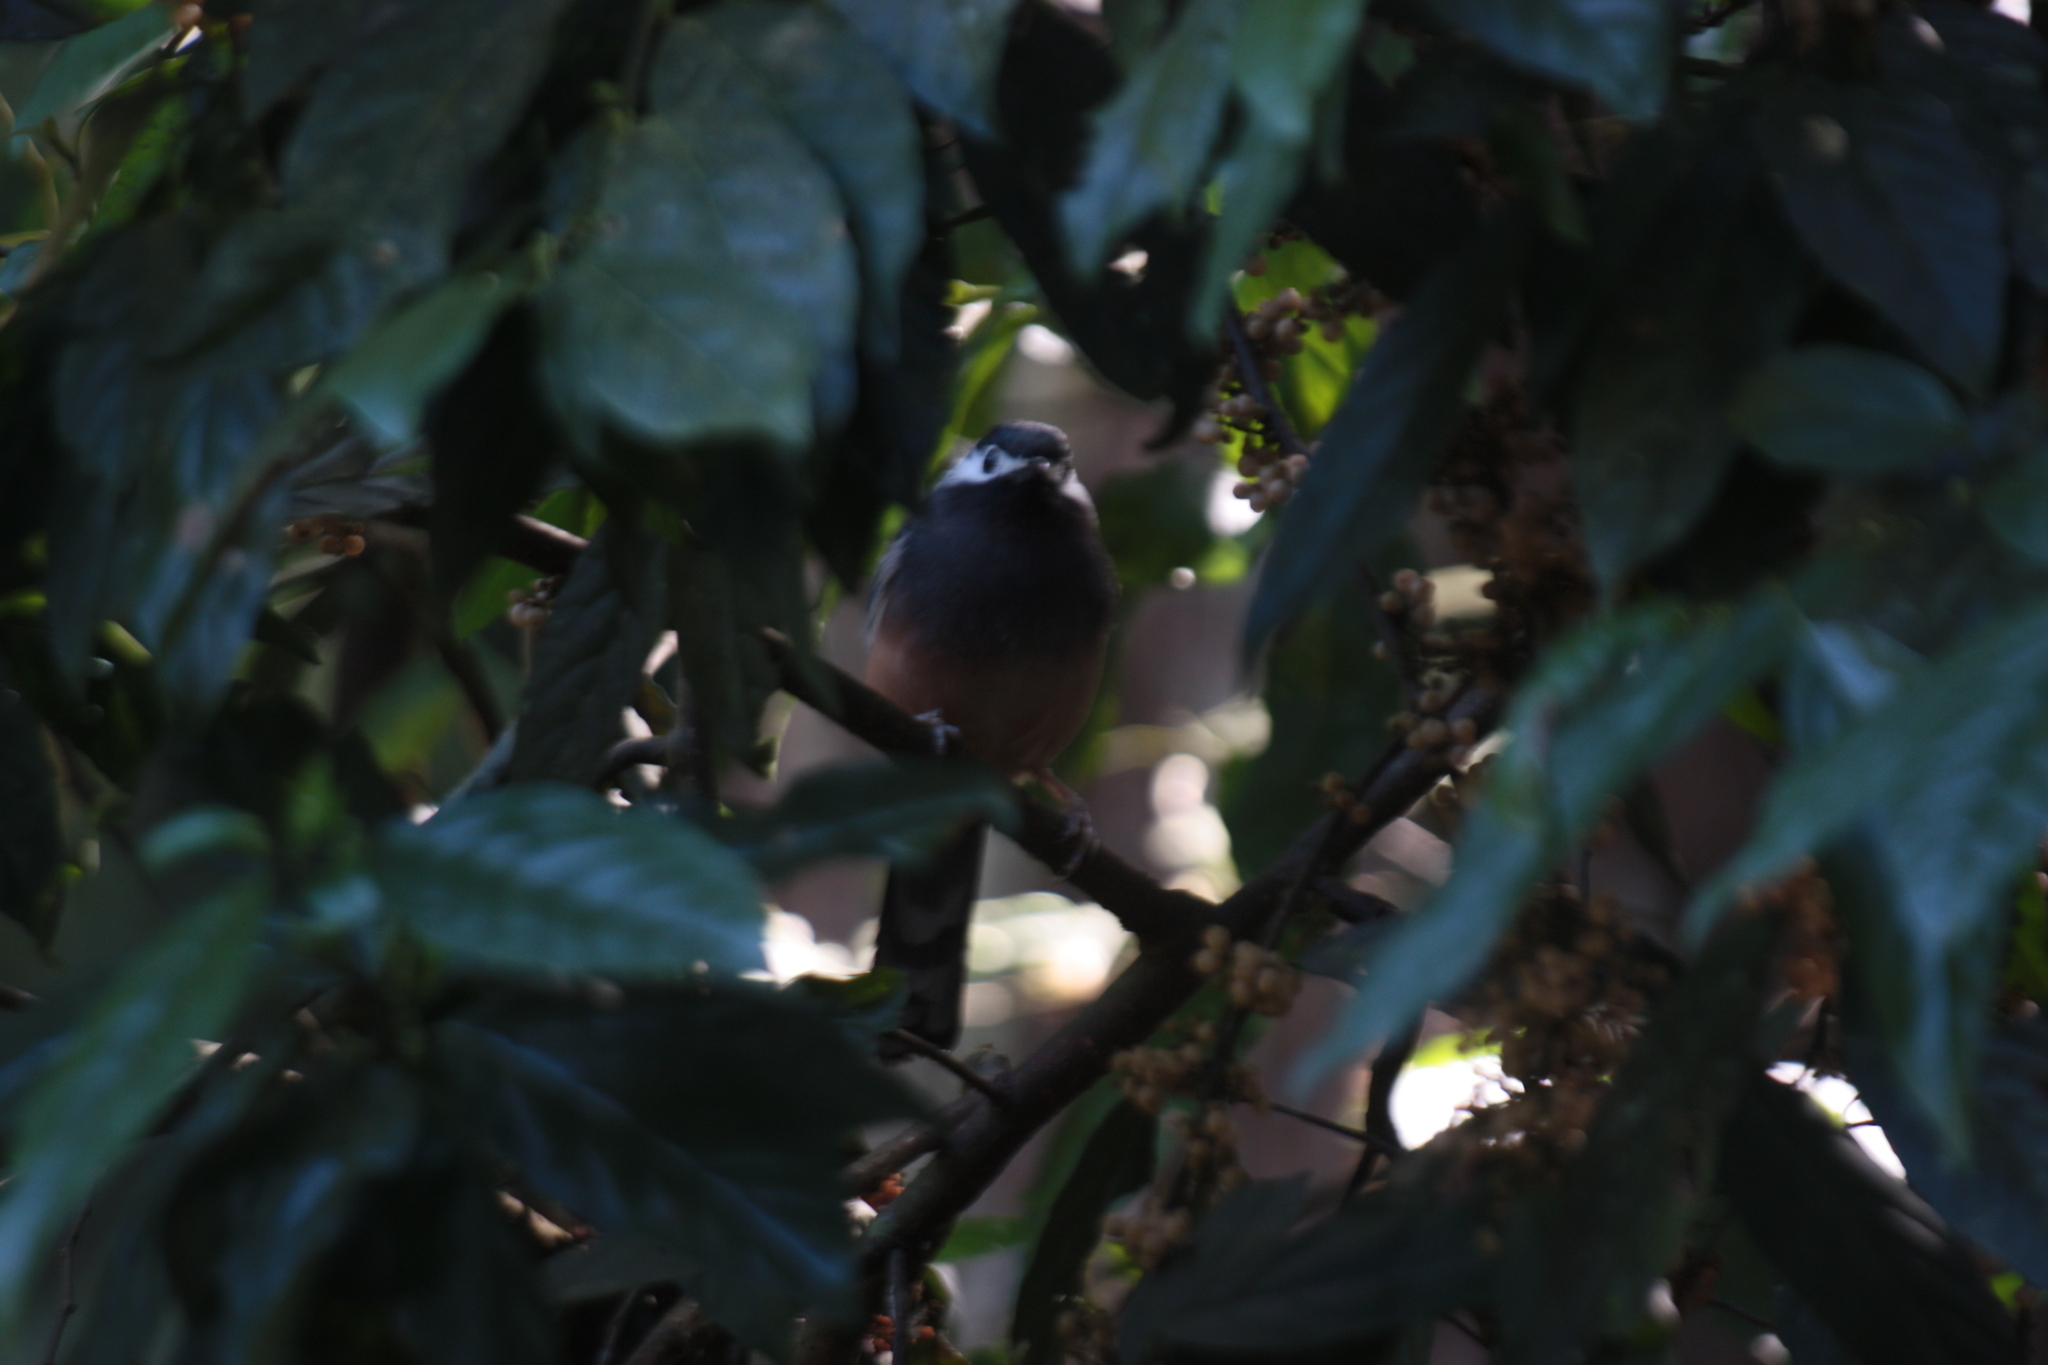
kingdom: Animalia
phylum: Chordata
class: Aves
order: Passeriformes
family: Leiothrichidae
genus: Heterophasia
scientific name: Heterophasia auricularis
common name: White-eared sibia
